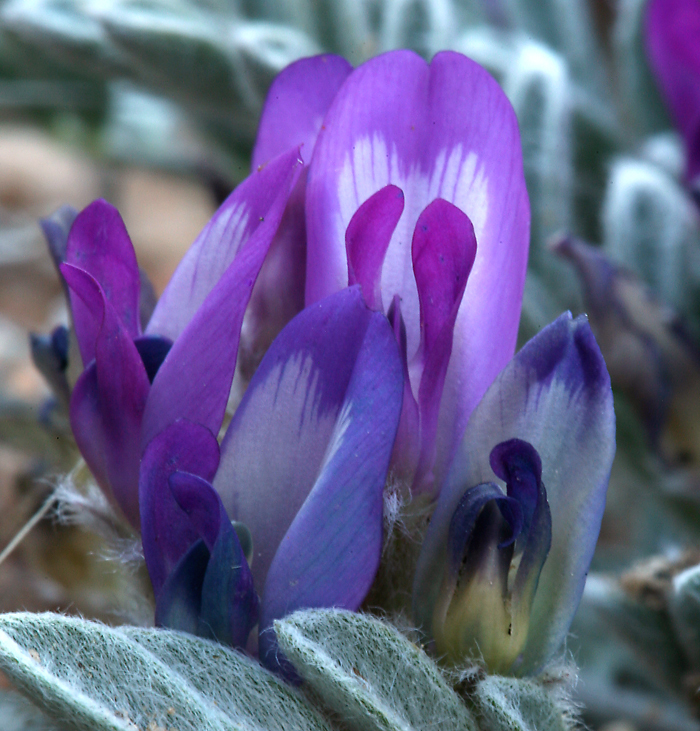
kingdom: Plantae
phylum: Tracheophyta
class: Magnoliopsida
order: Fabales
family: Fabaceae
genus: Astragalus
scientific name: Astragalus purshii
